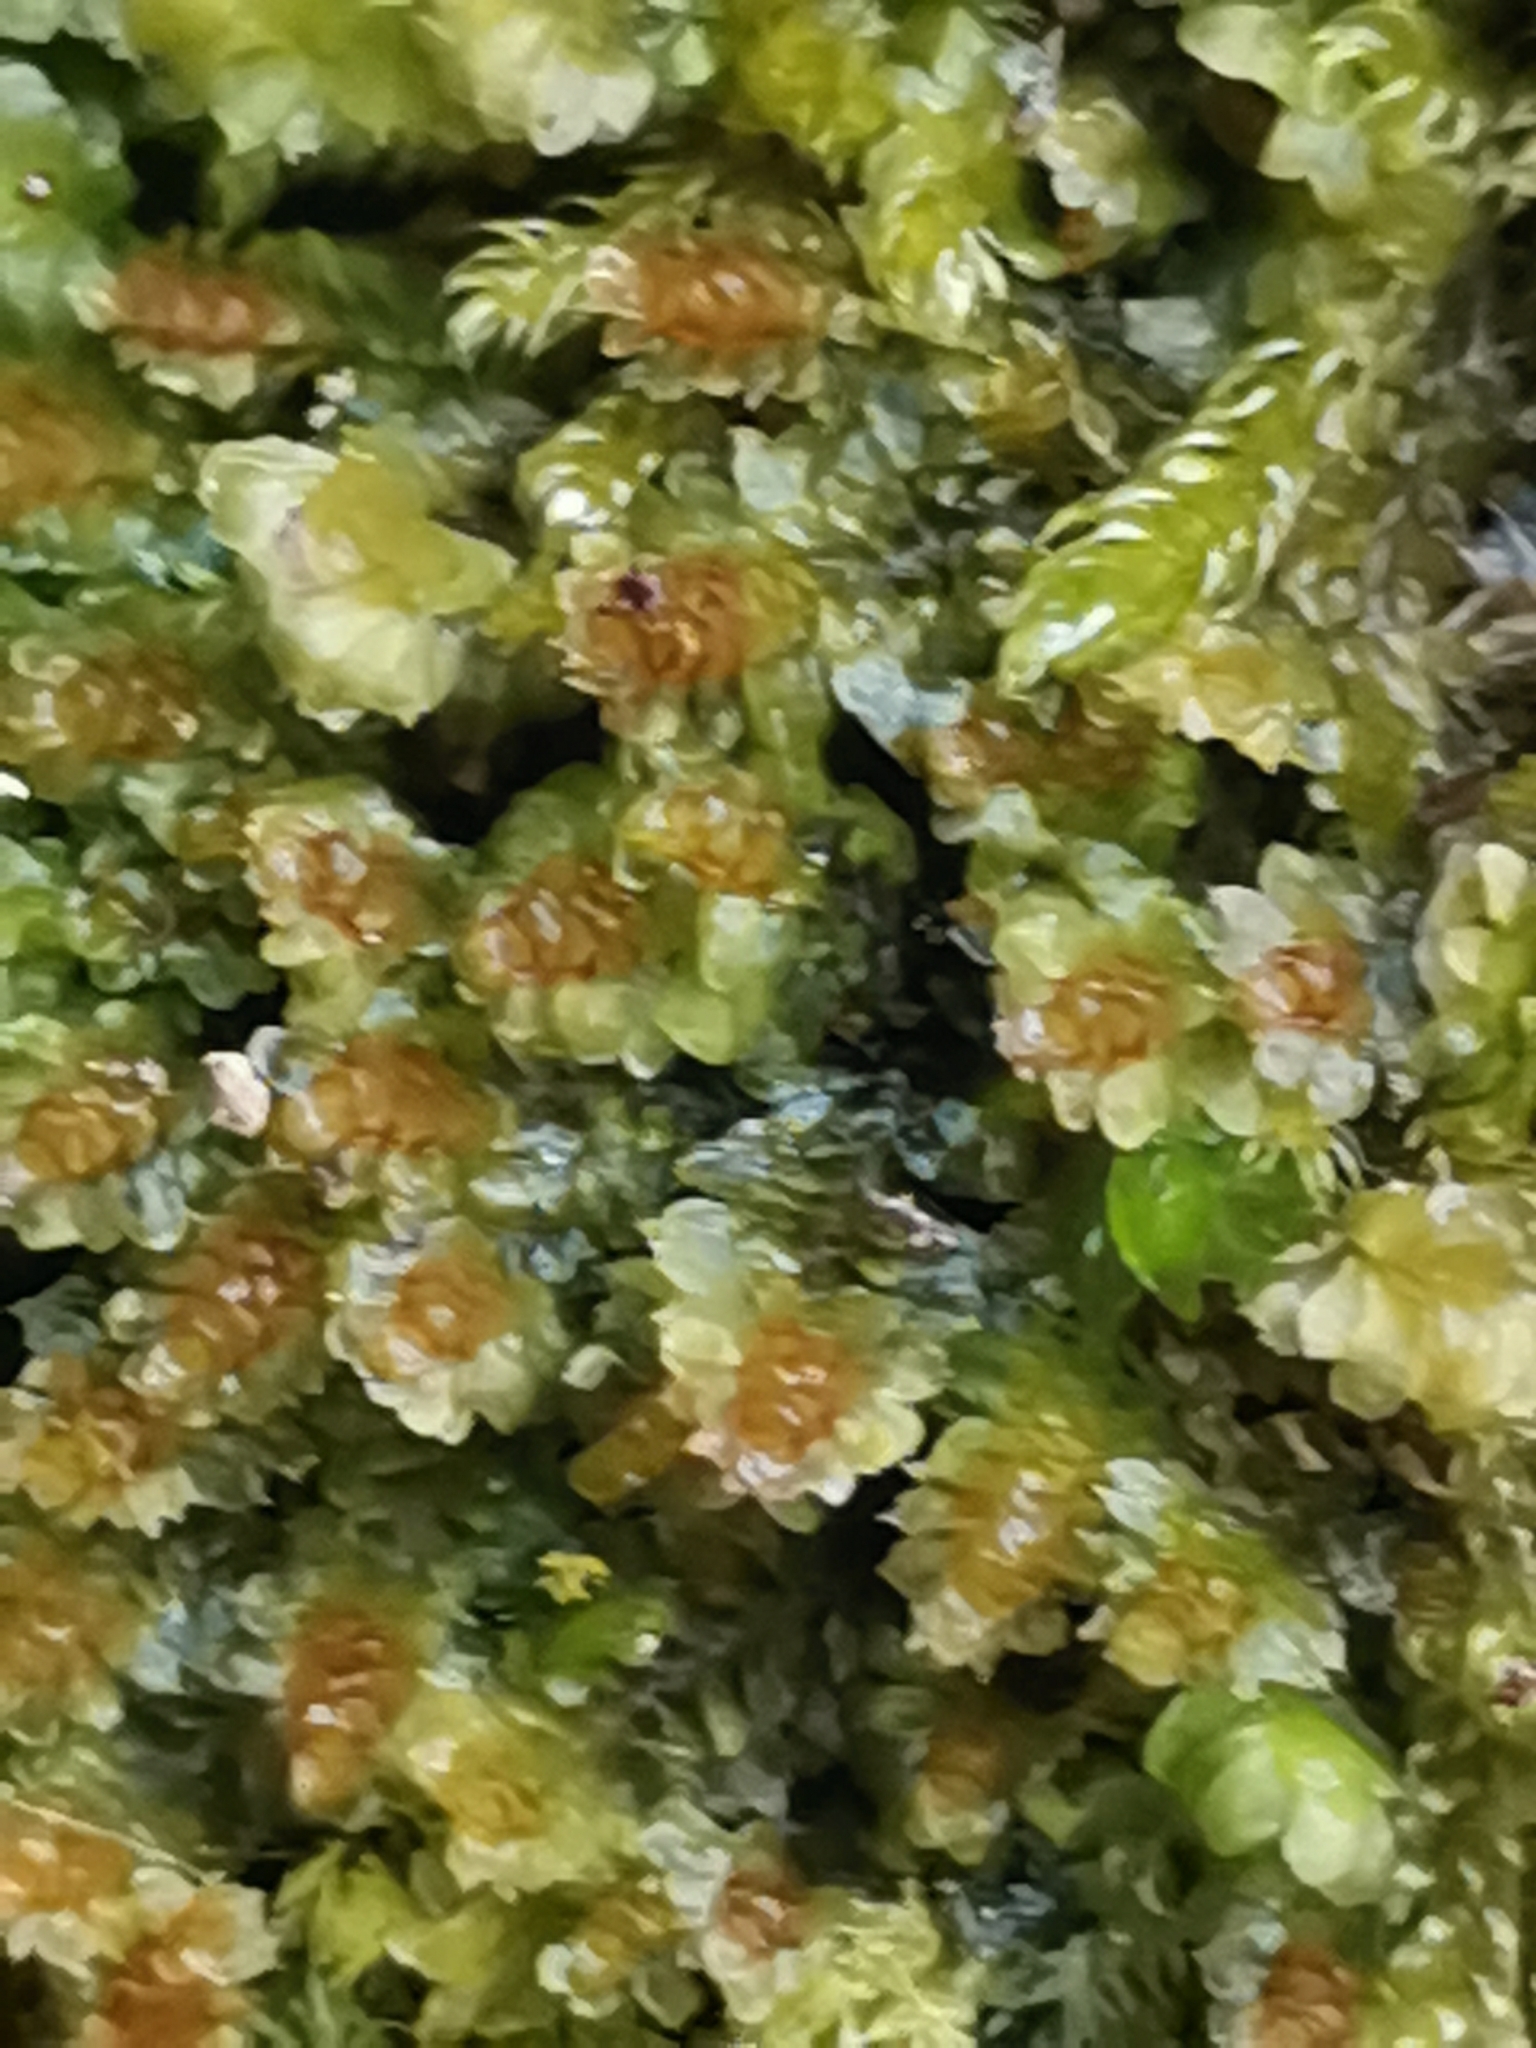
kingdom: Plantae
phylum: Marchantiophyta
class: Jungermanniopsida
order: Jungermanniales
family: Scapaniaceae
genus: Diplophyllum
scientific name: Diplophyllum albicans
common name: White earwort
